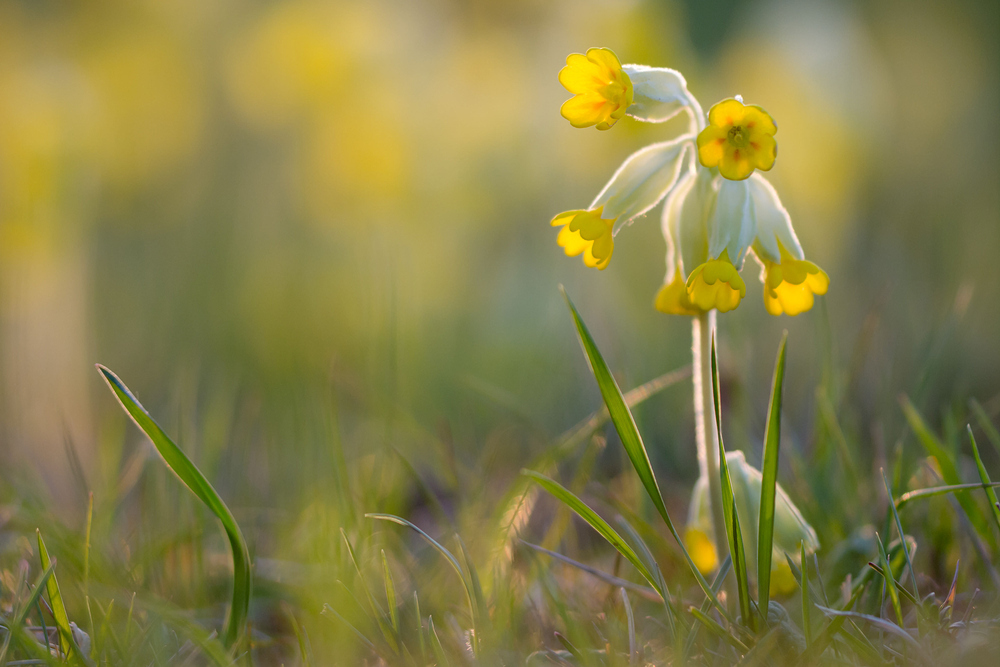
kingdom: Plantae
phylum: Tracheophyta
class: Magnoliopsida
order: Ericales
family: Primulaceae
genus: Primula
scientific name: Primula veris
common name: Cowslip
